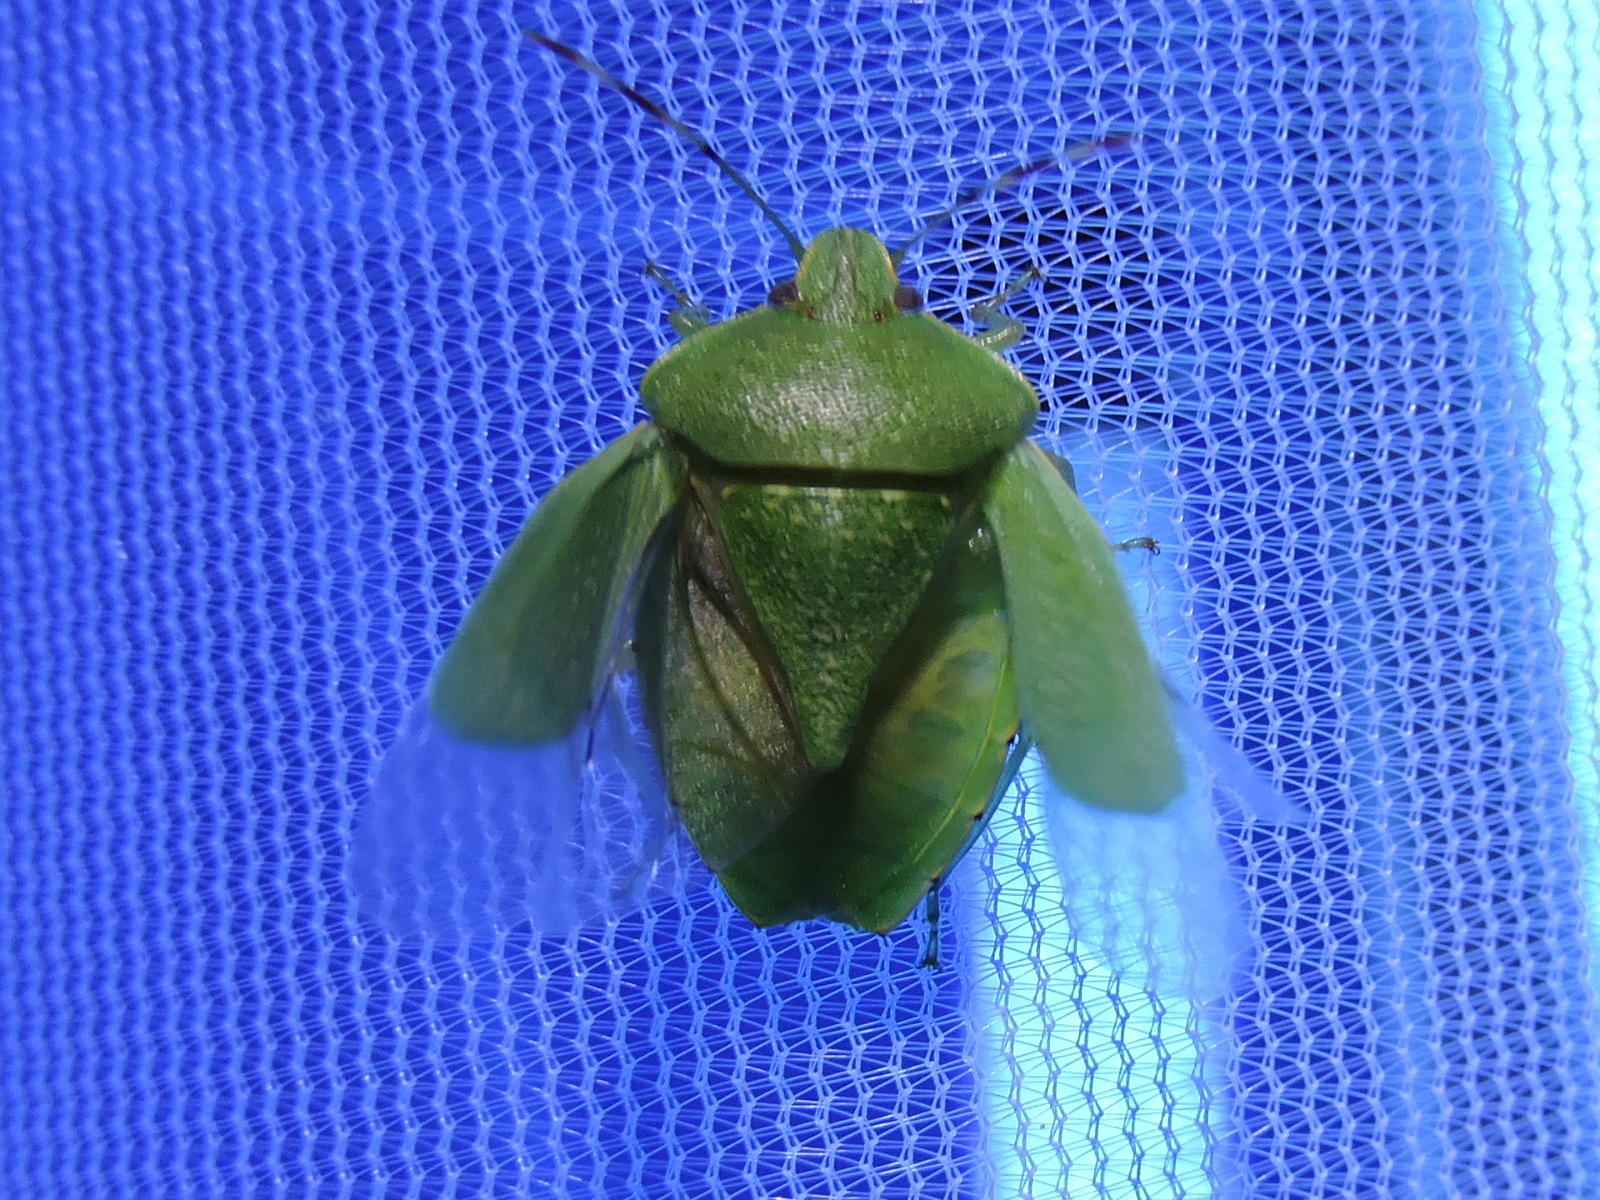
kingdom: Animalia
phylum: Arthropoda
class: Insecta
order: Hemiptera
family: Pentatomidae
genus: Chinavia
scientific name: Chinavia hilaris
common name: Green stink bug
